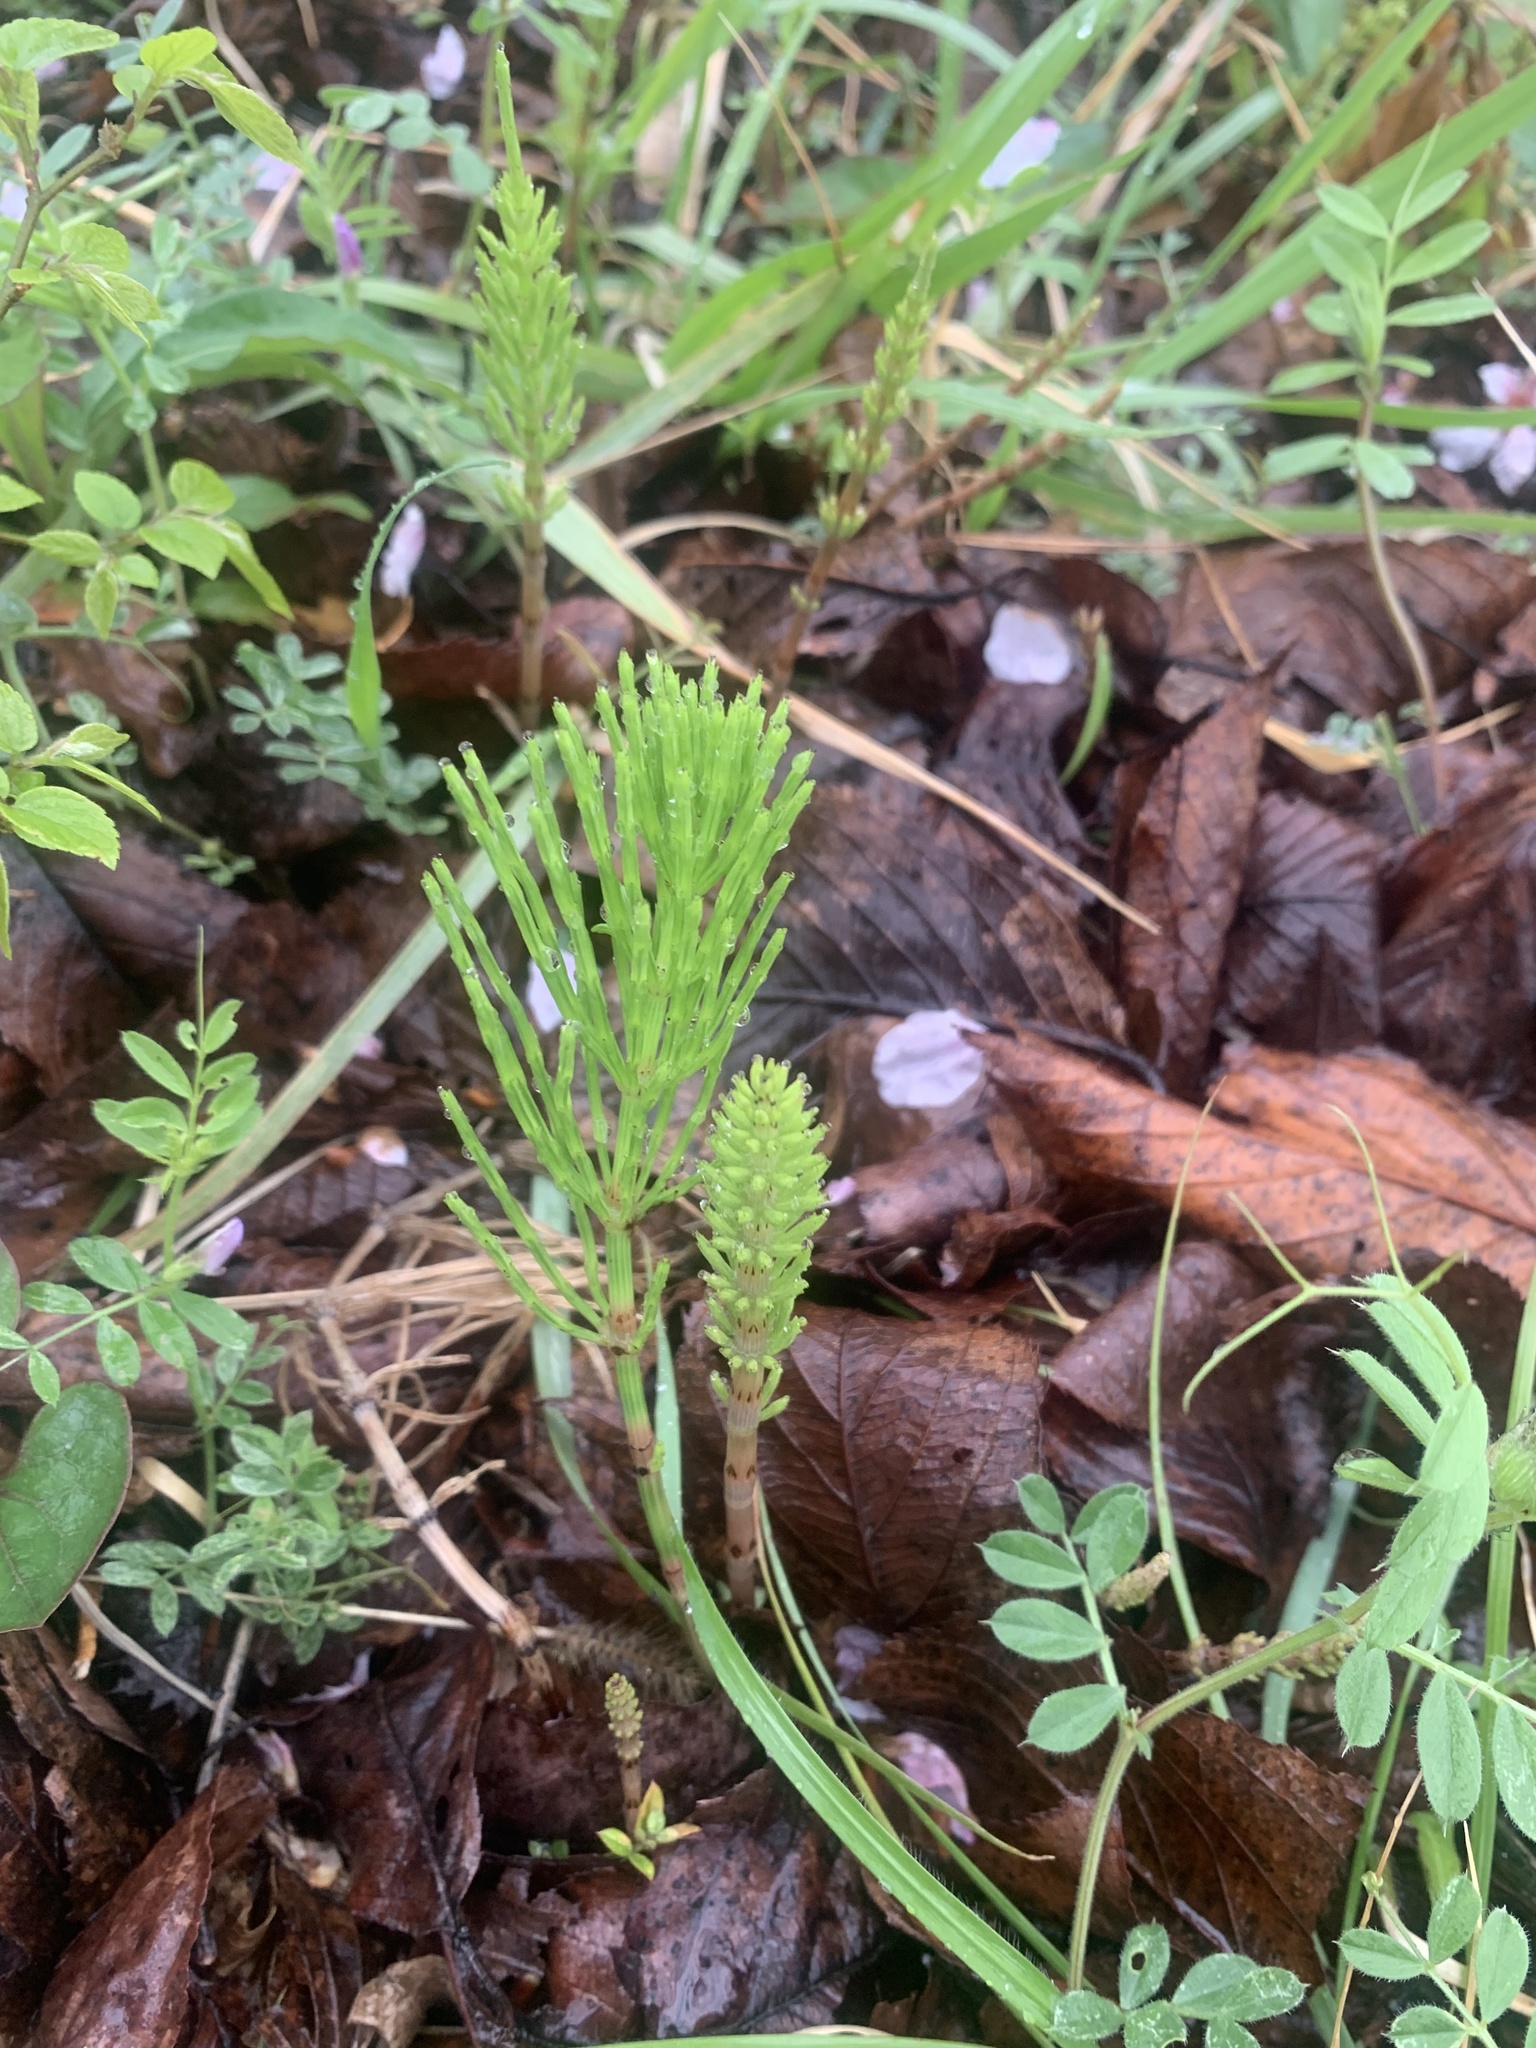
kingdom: Plantae
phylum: Tracheophyta
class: Polypodiopsida
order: Equisetales
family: Equisetaceae
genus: Equisetum
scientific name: Equisetum arvense
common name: Field horsetail
